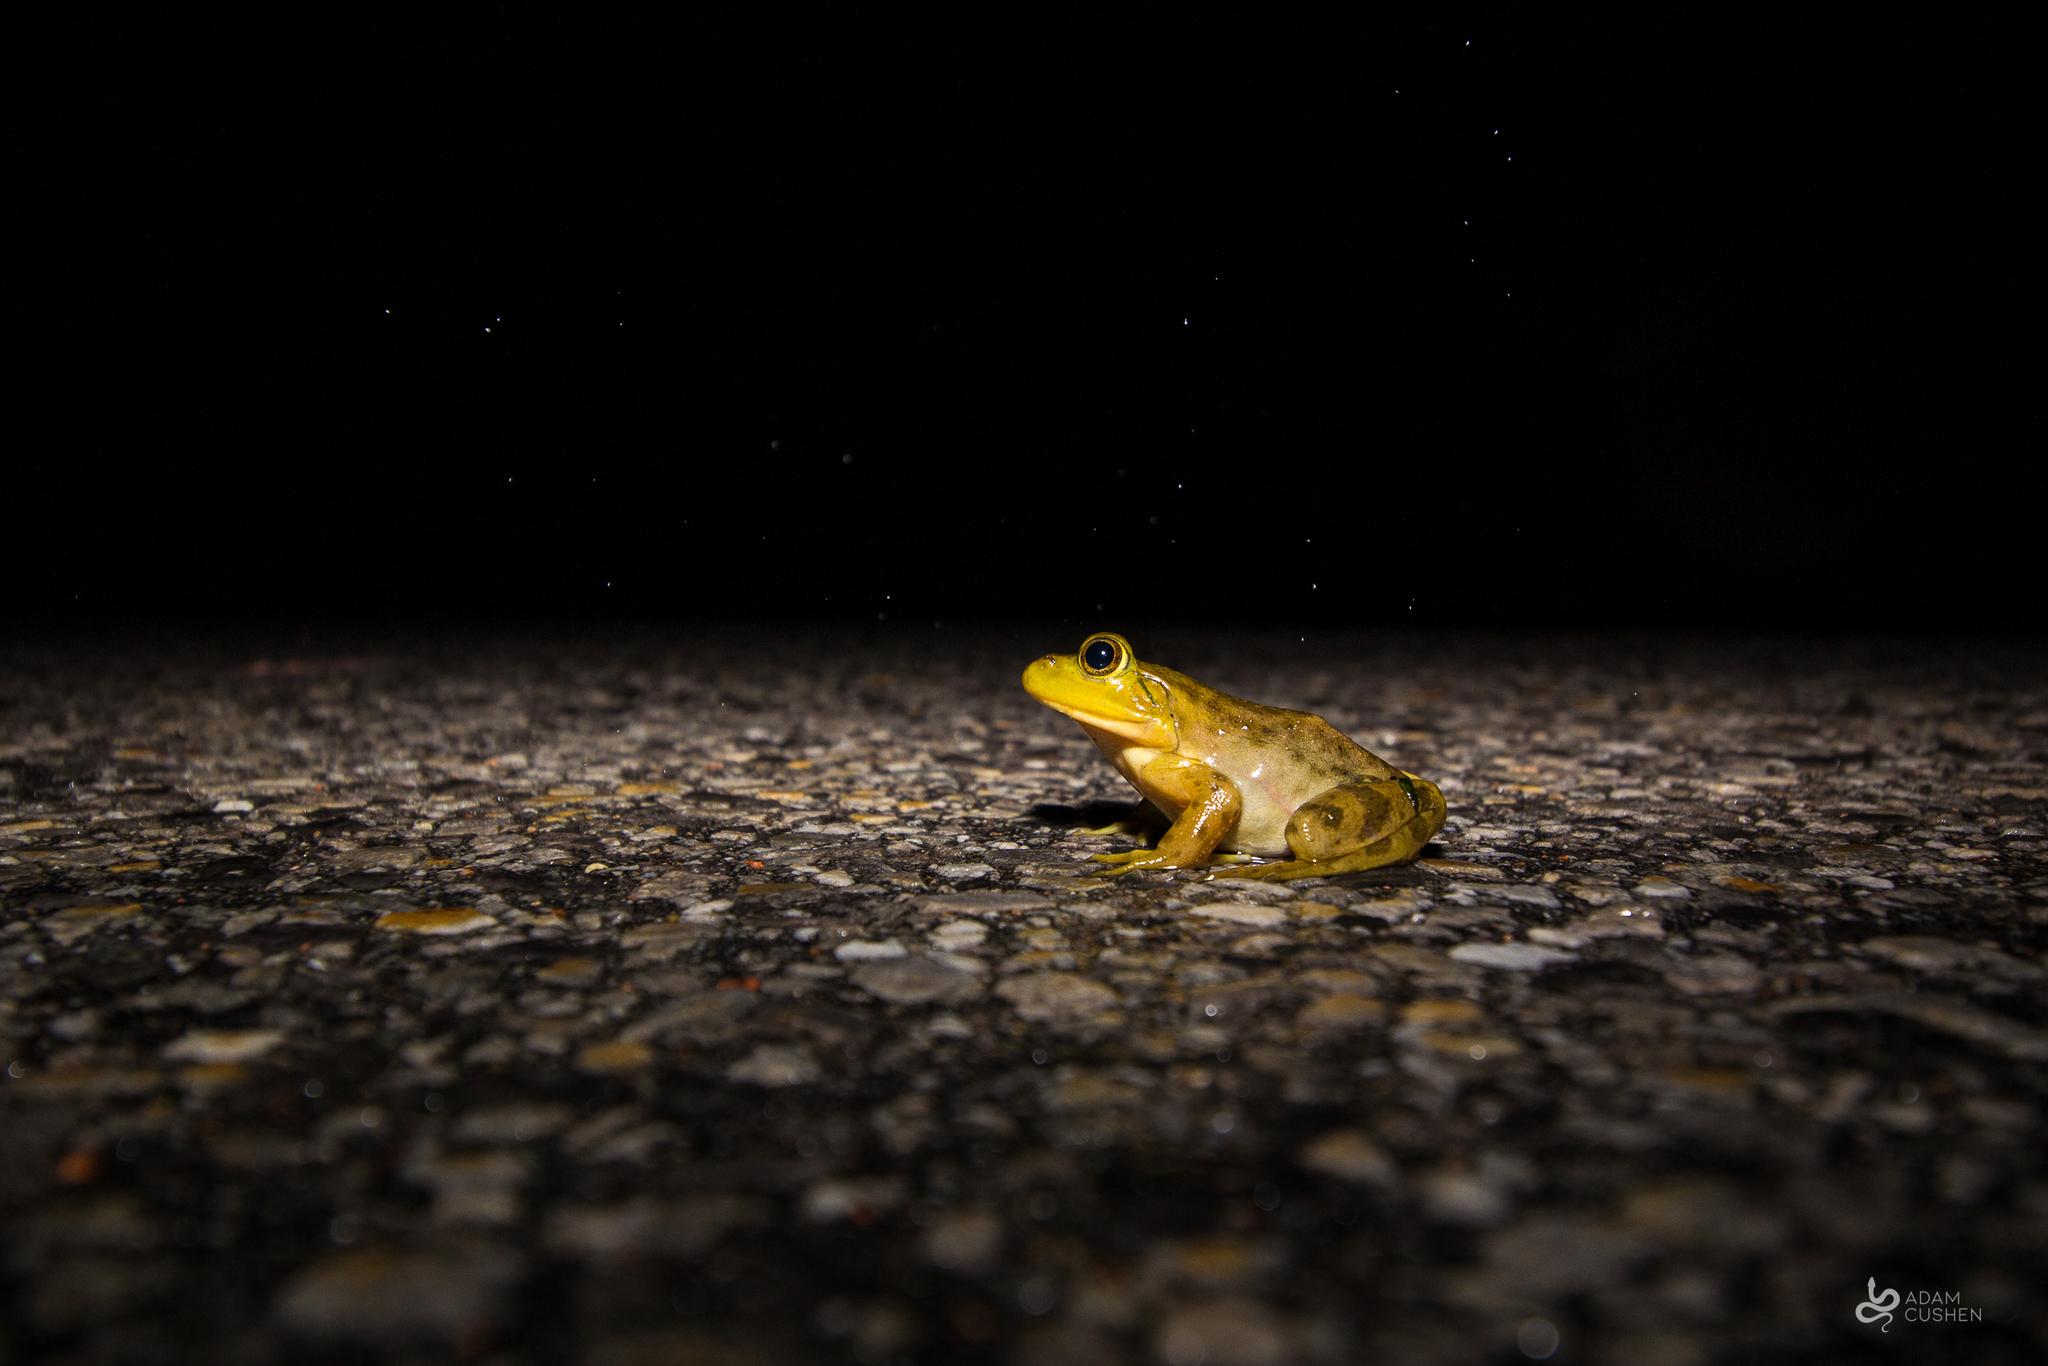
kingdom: Animalia
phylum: Chordata
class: Amphibia
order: Anura
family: Ranidae
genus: Lithobates
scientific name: Lithobates catesbeianus
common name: American bullfrog
